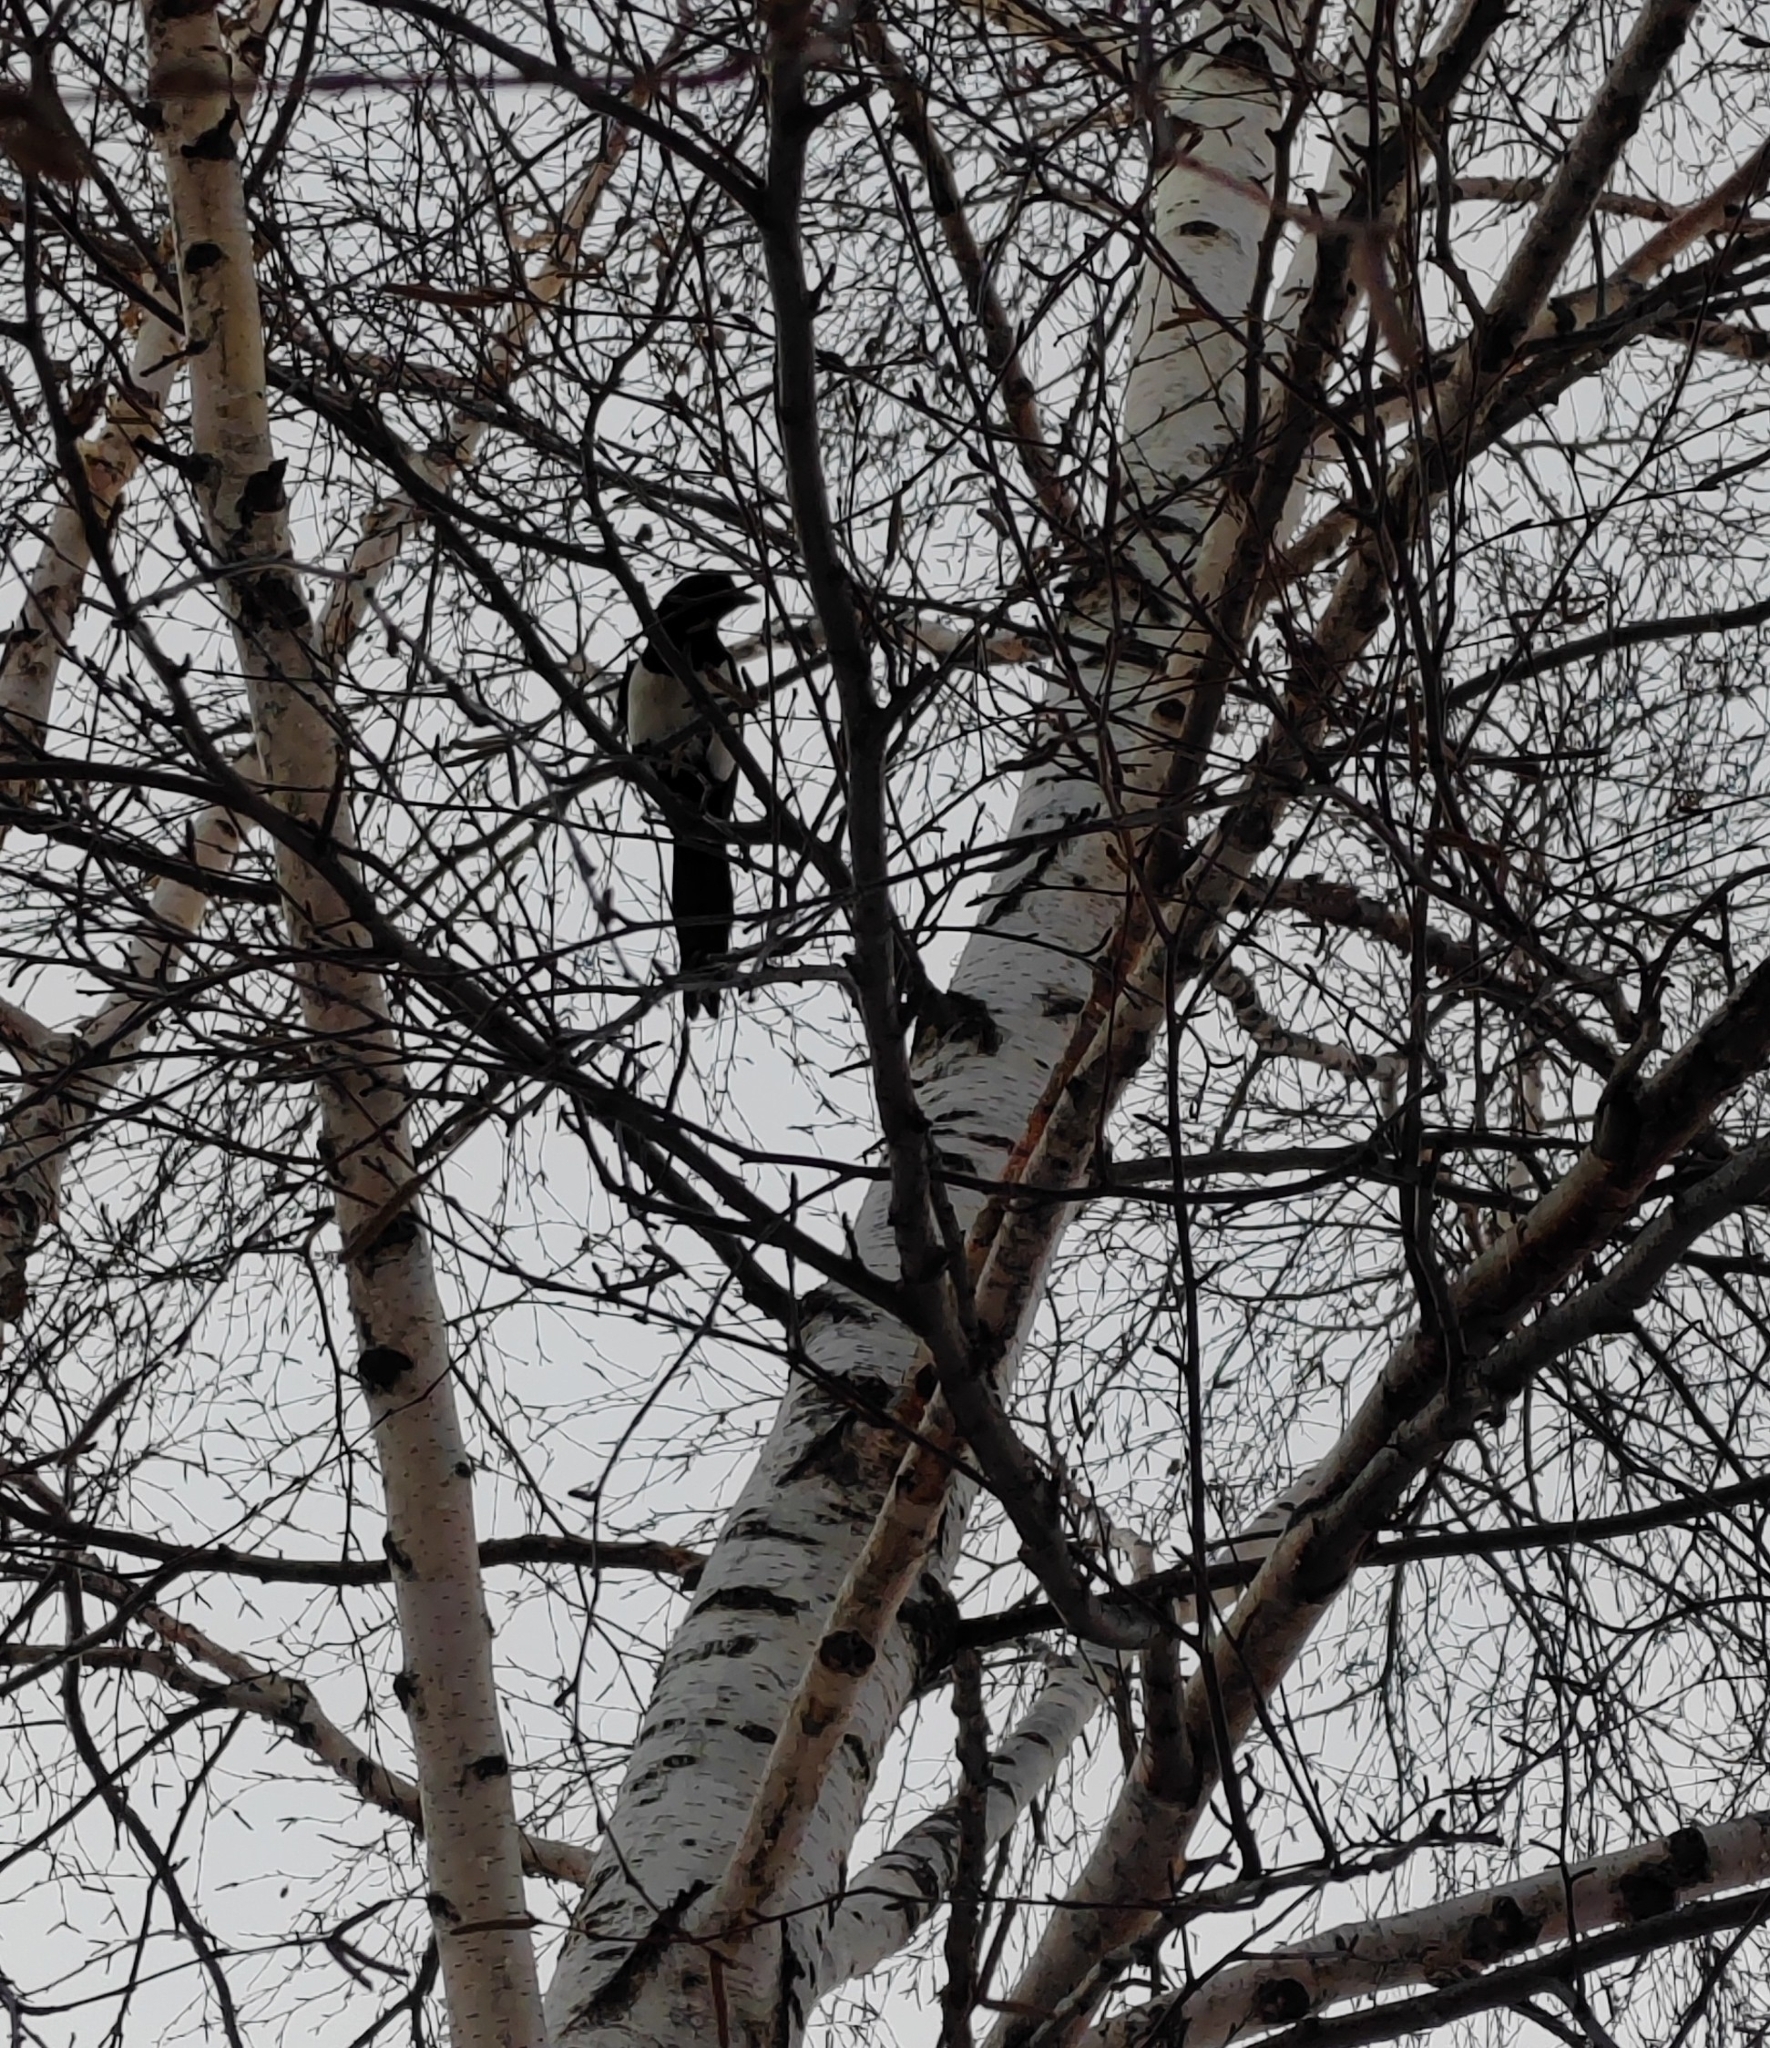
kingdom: Animalia
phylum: Chordata
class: Aves
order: Passeriformes
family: Corvidae
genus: Pica
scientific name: Pica pica
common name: Eurasian magpie
